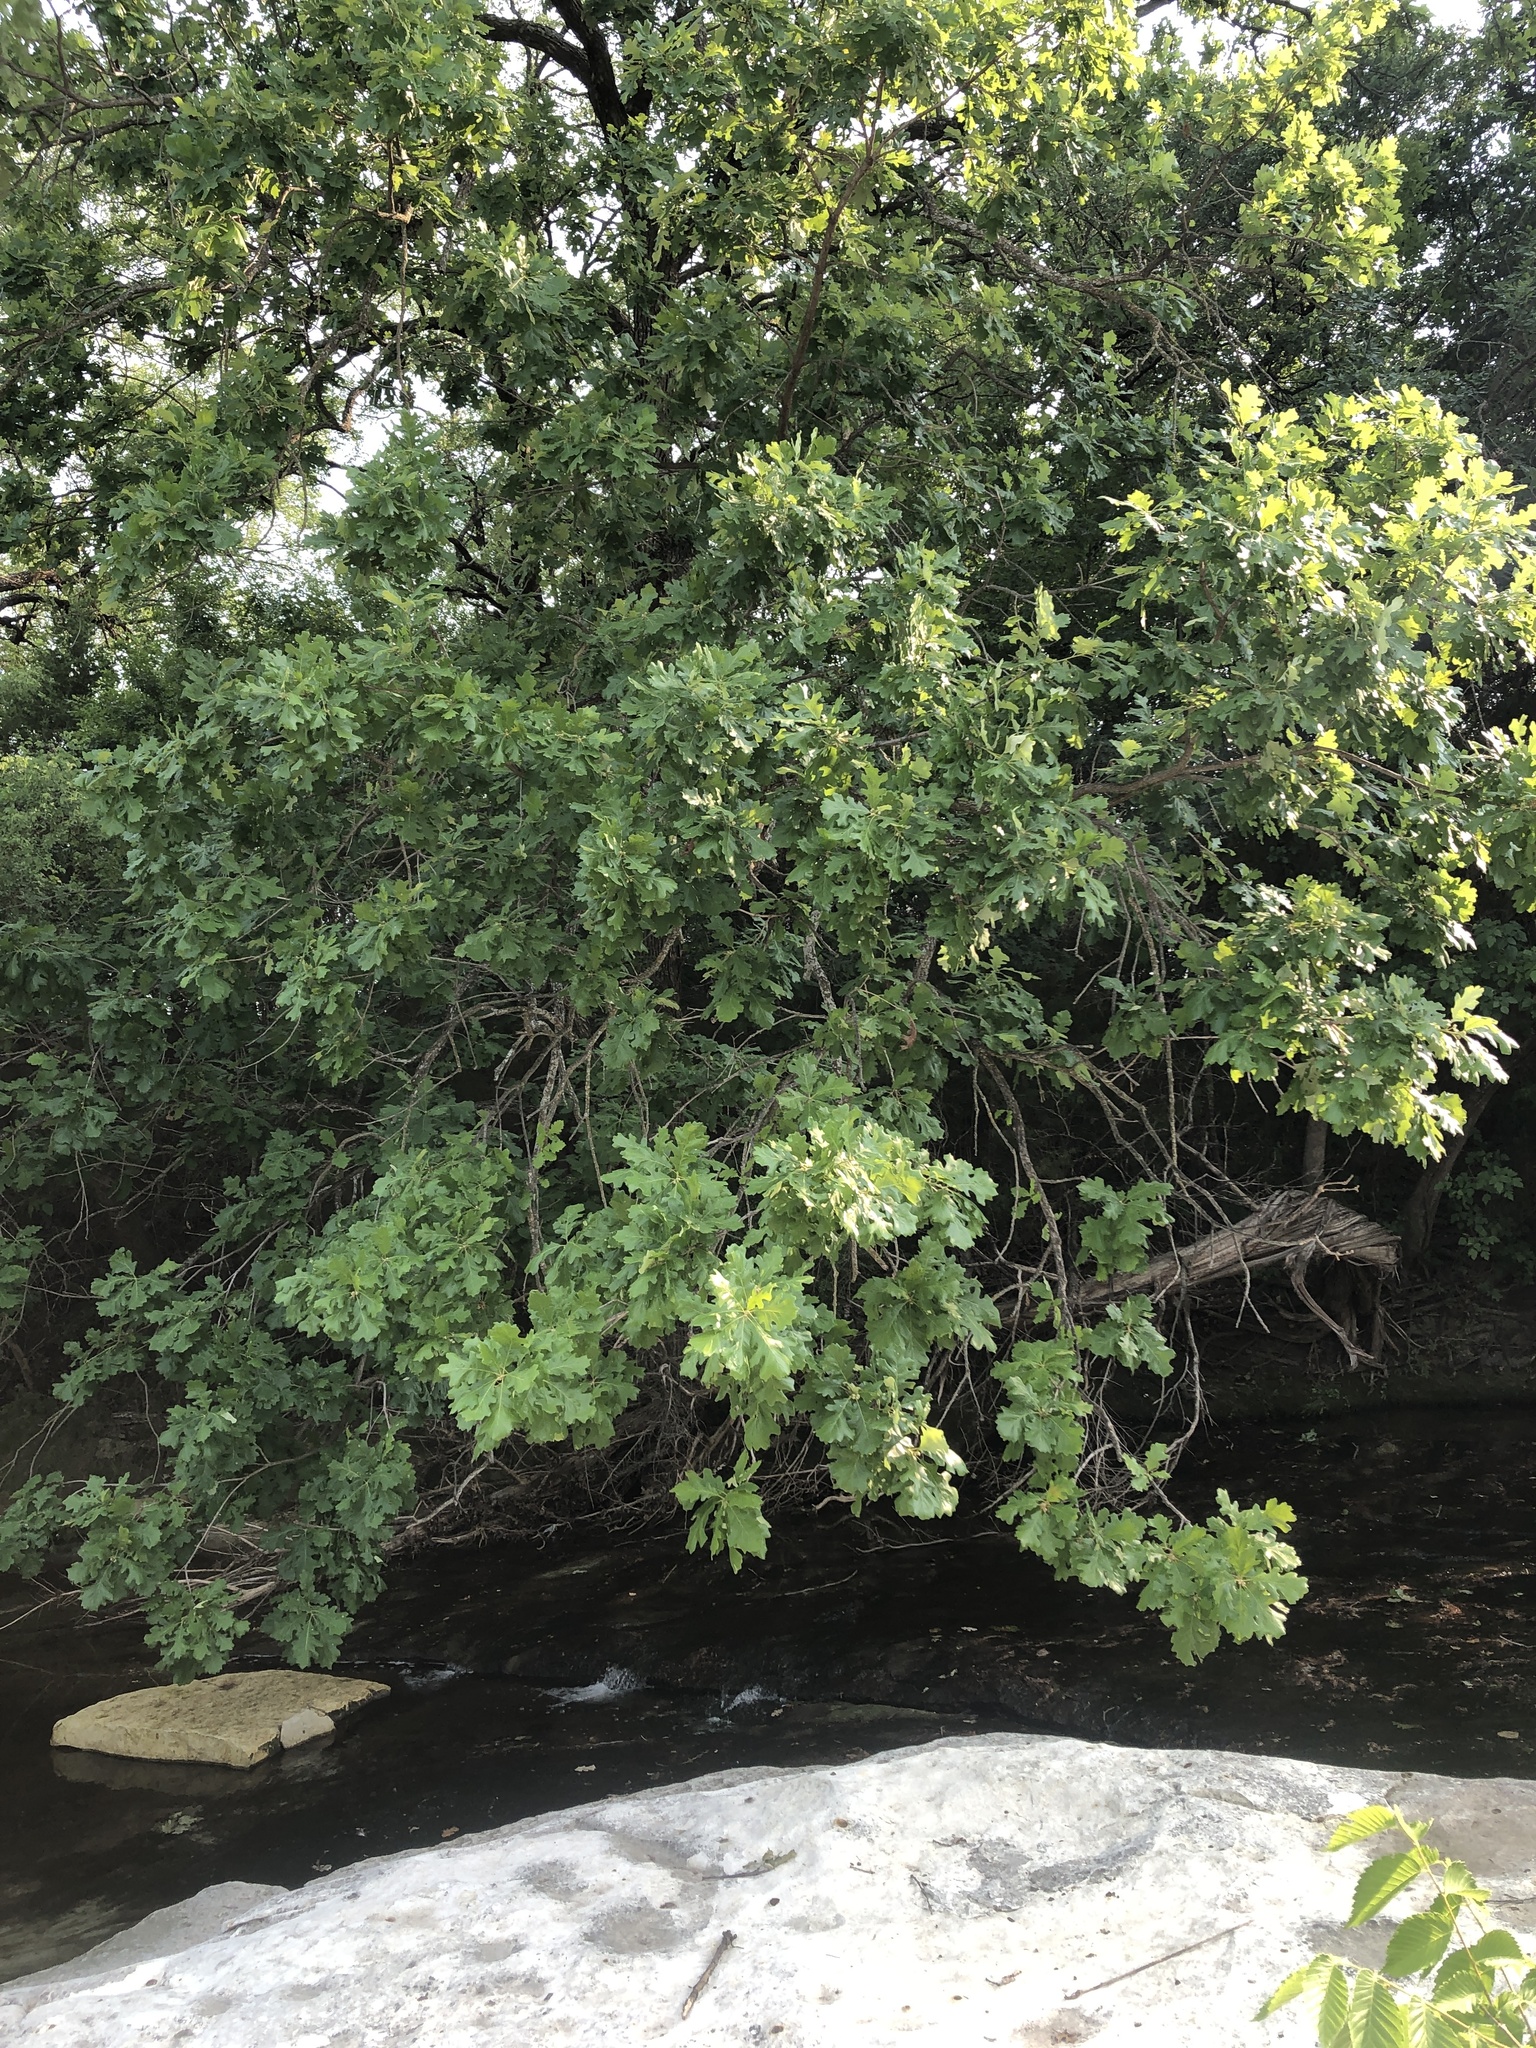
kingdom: Plantae
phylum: Tracheophyta
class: Magnoliopsida
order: Fagales
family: Fagaceae
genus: Quercus
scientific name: Quercus macrocarpa
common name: Bur oak
